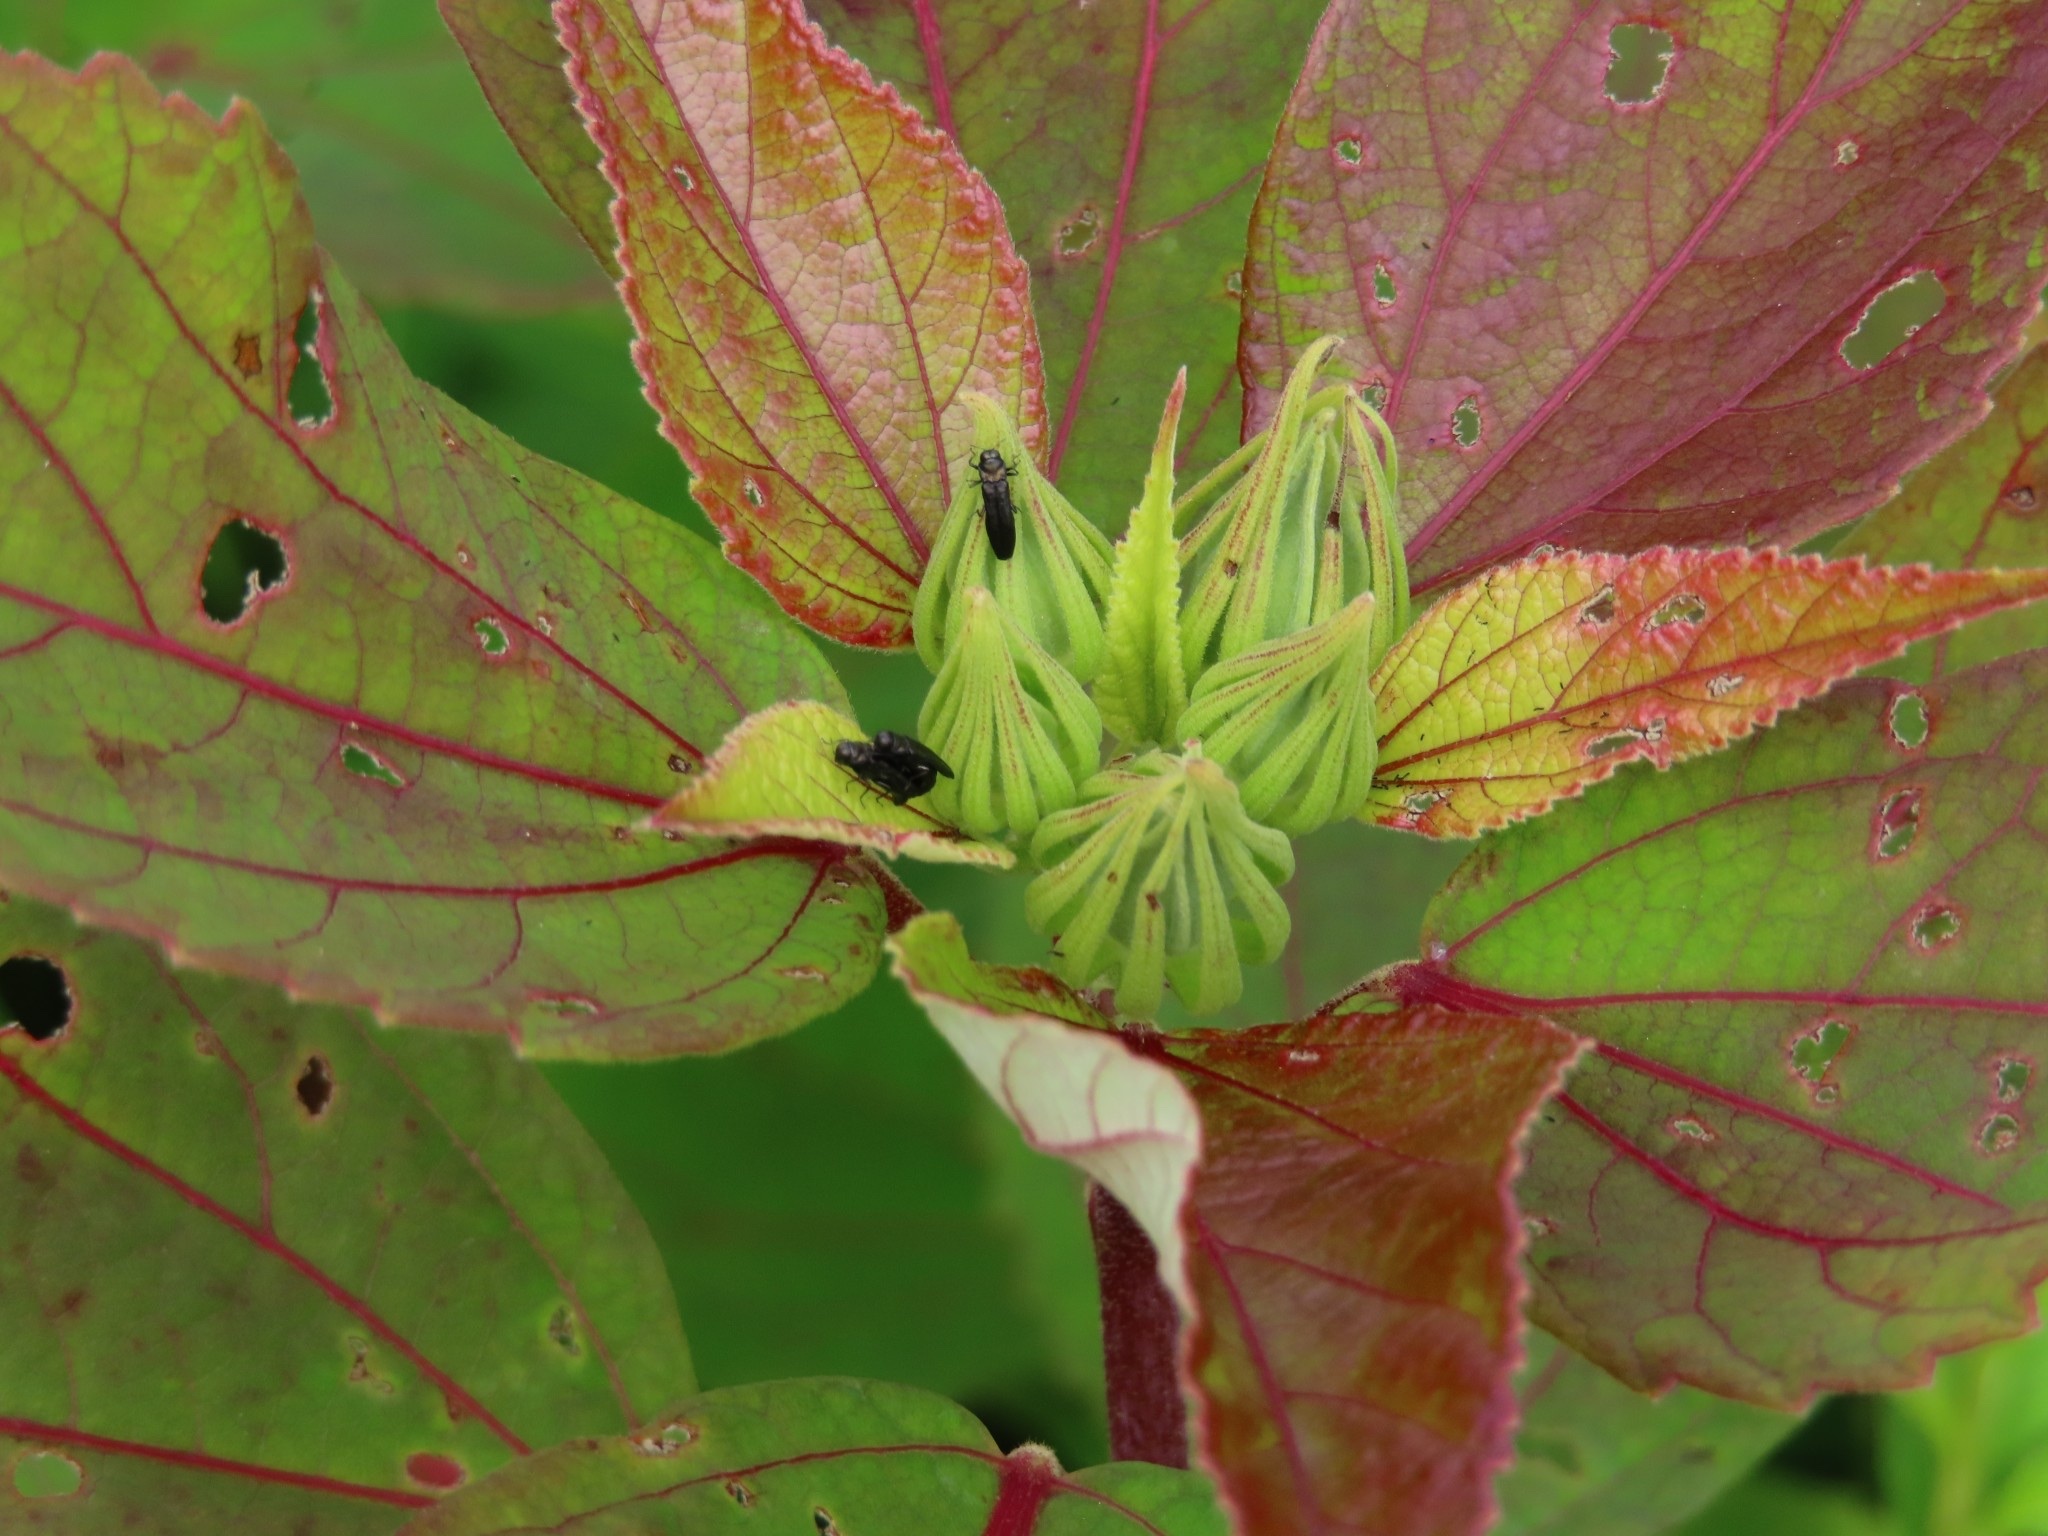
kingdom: Animalia
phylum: Arthropoda
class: Insecta
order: Coleoptera
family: Buprestidae
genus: Paragrilus
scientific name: Paragrilus tenuis
